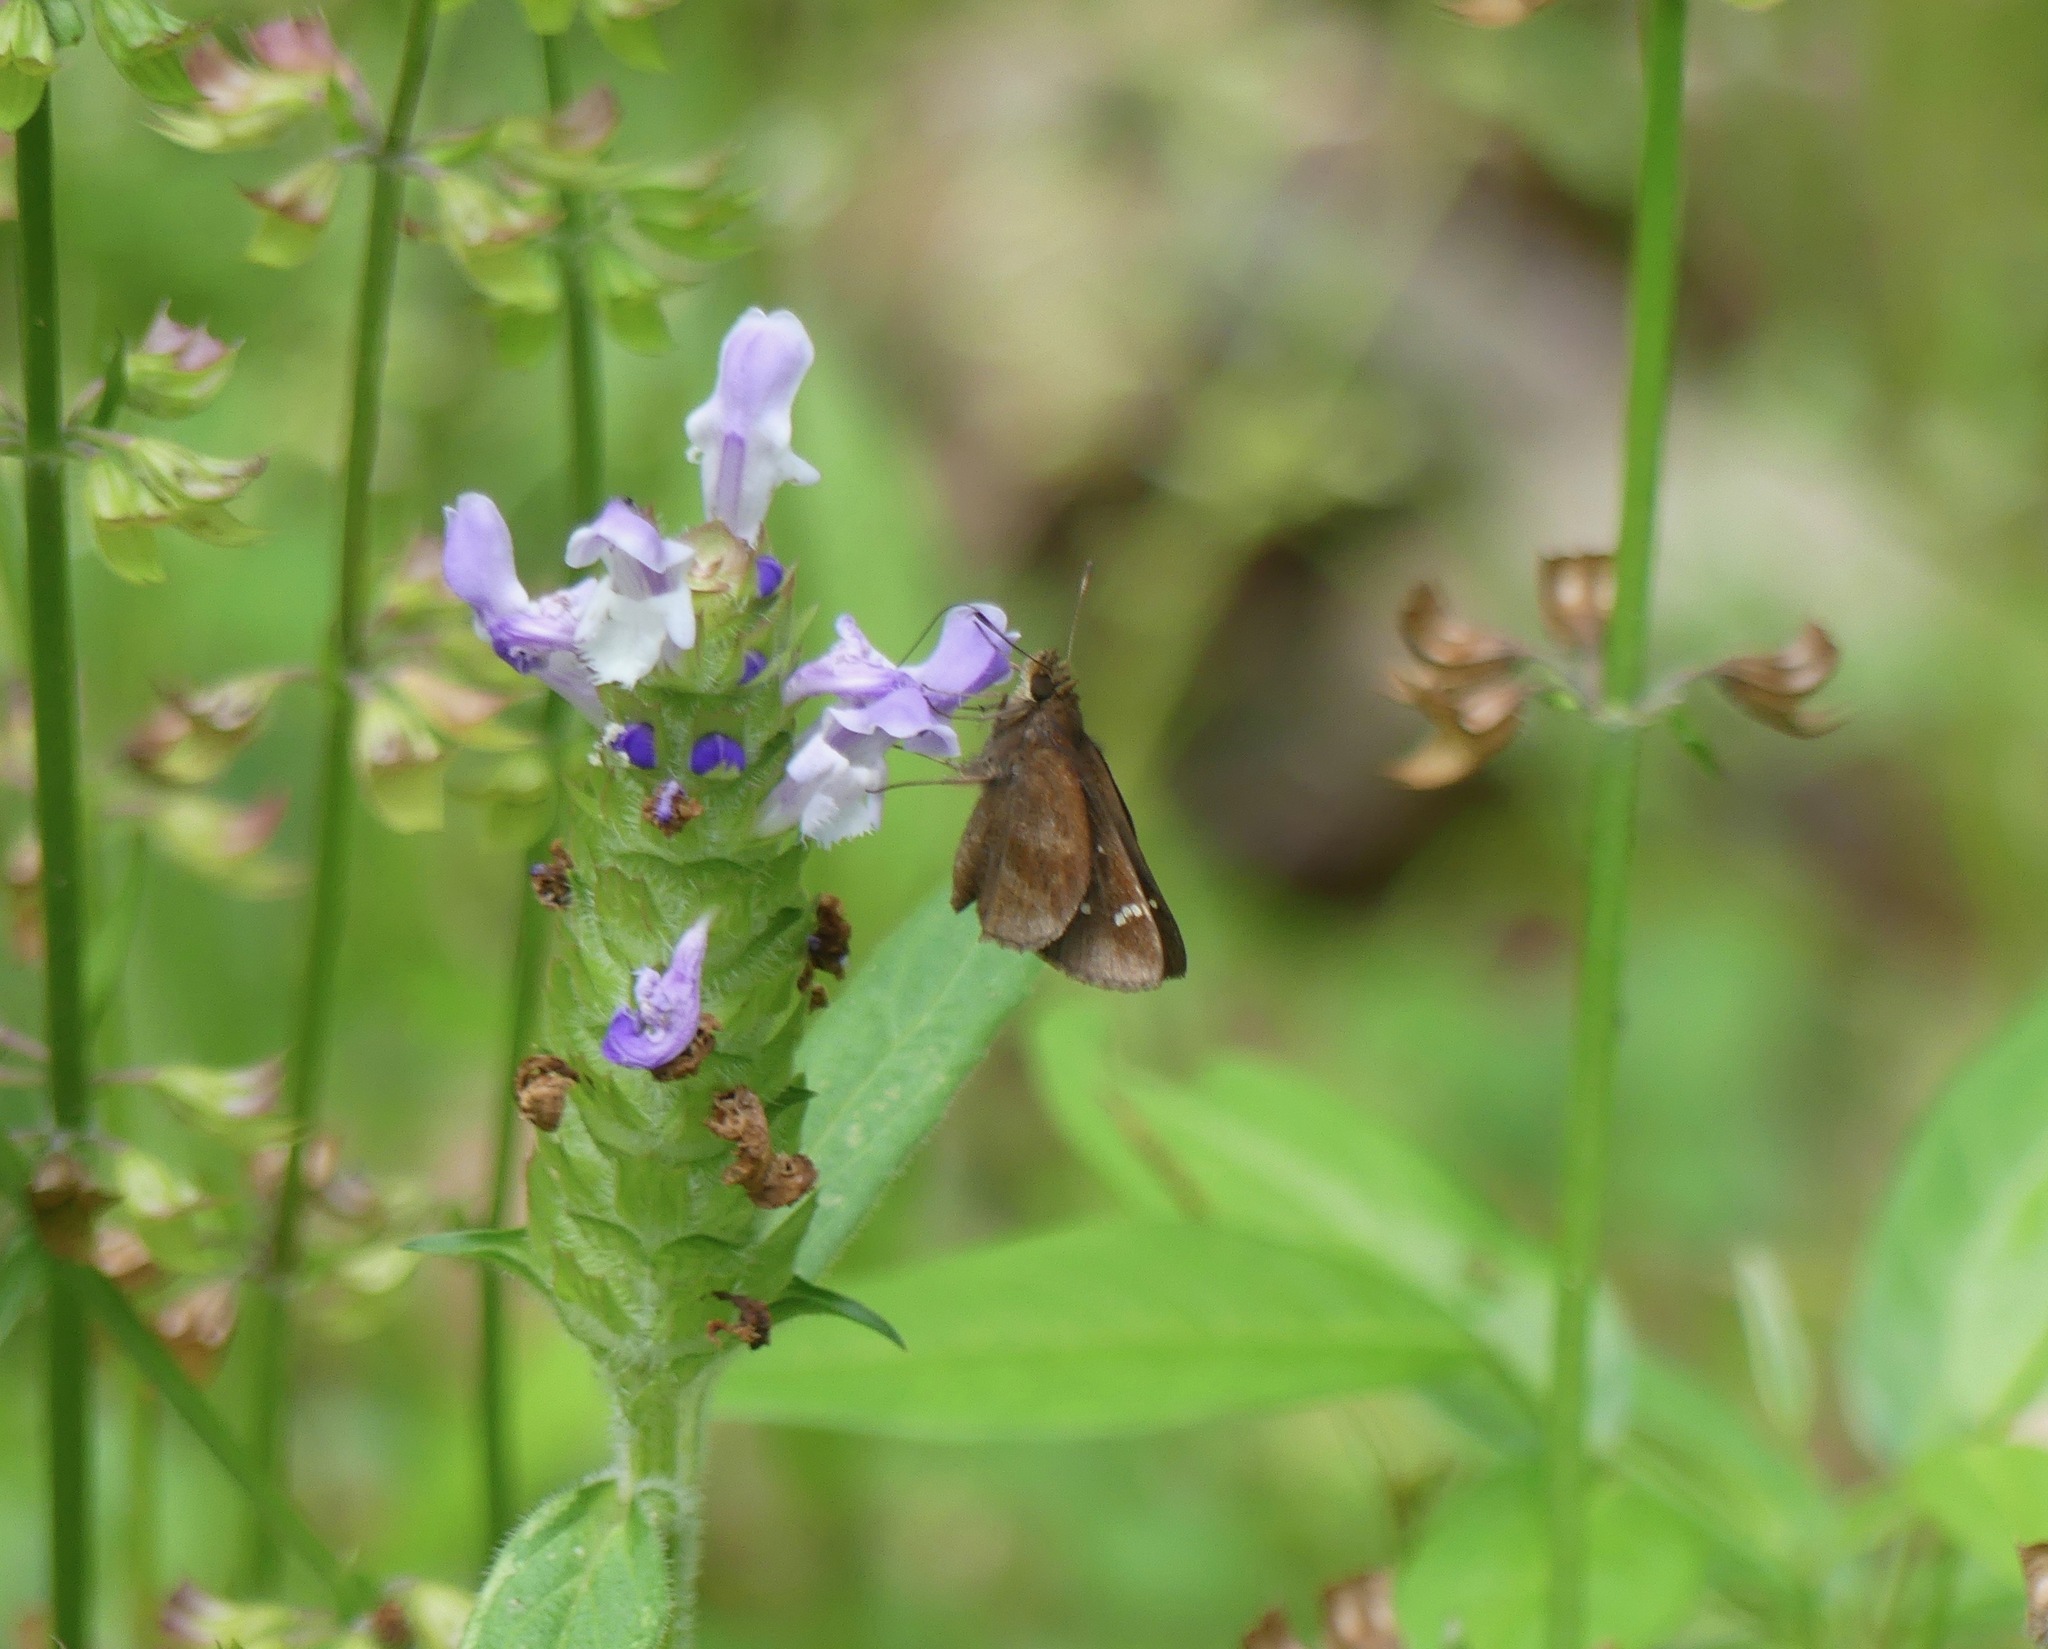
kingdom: Animalia
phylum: Arthropoda
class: Insecta
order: Lepidoptera
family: Hesperiidae
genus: Lerema
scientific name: Lerema accius
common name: Clouded skipper
